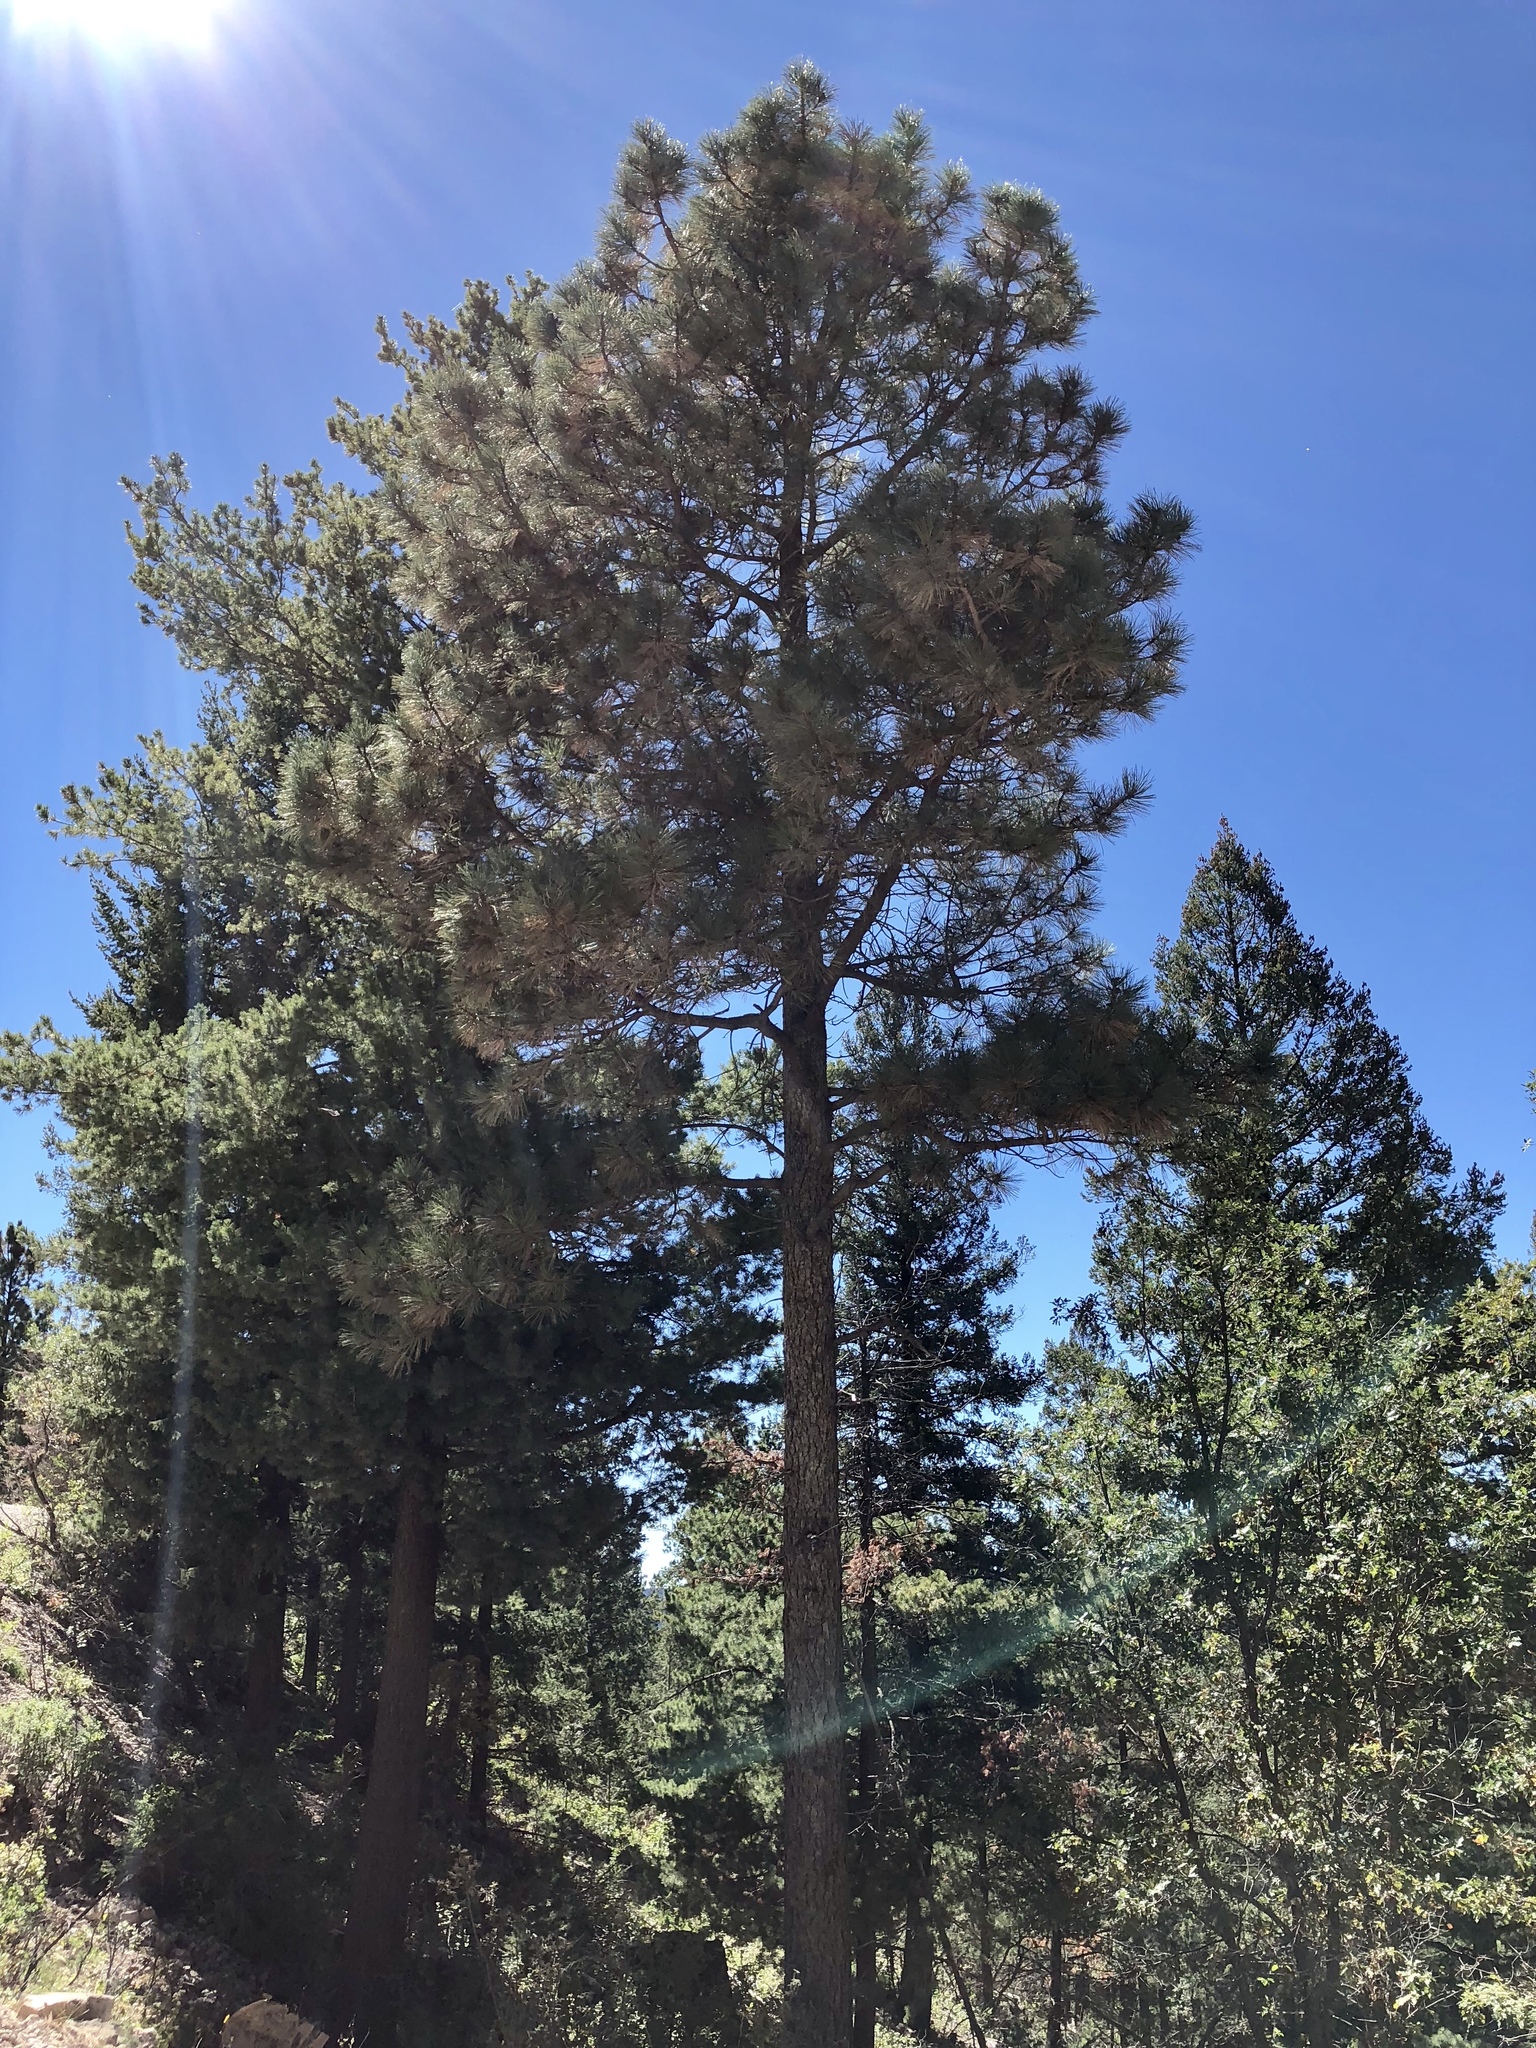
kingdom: Plantae
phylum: Tracheophyta
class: Pinopsida
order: Pinales
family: Pinaceae
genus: Pinus
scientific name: Pinus ponderosa
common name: Western yellow-pine
